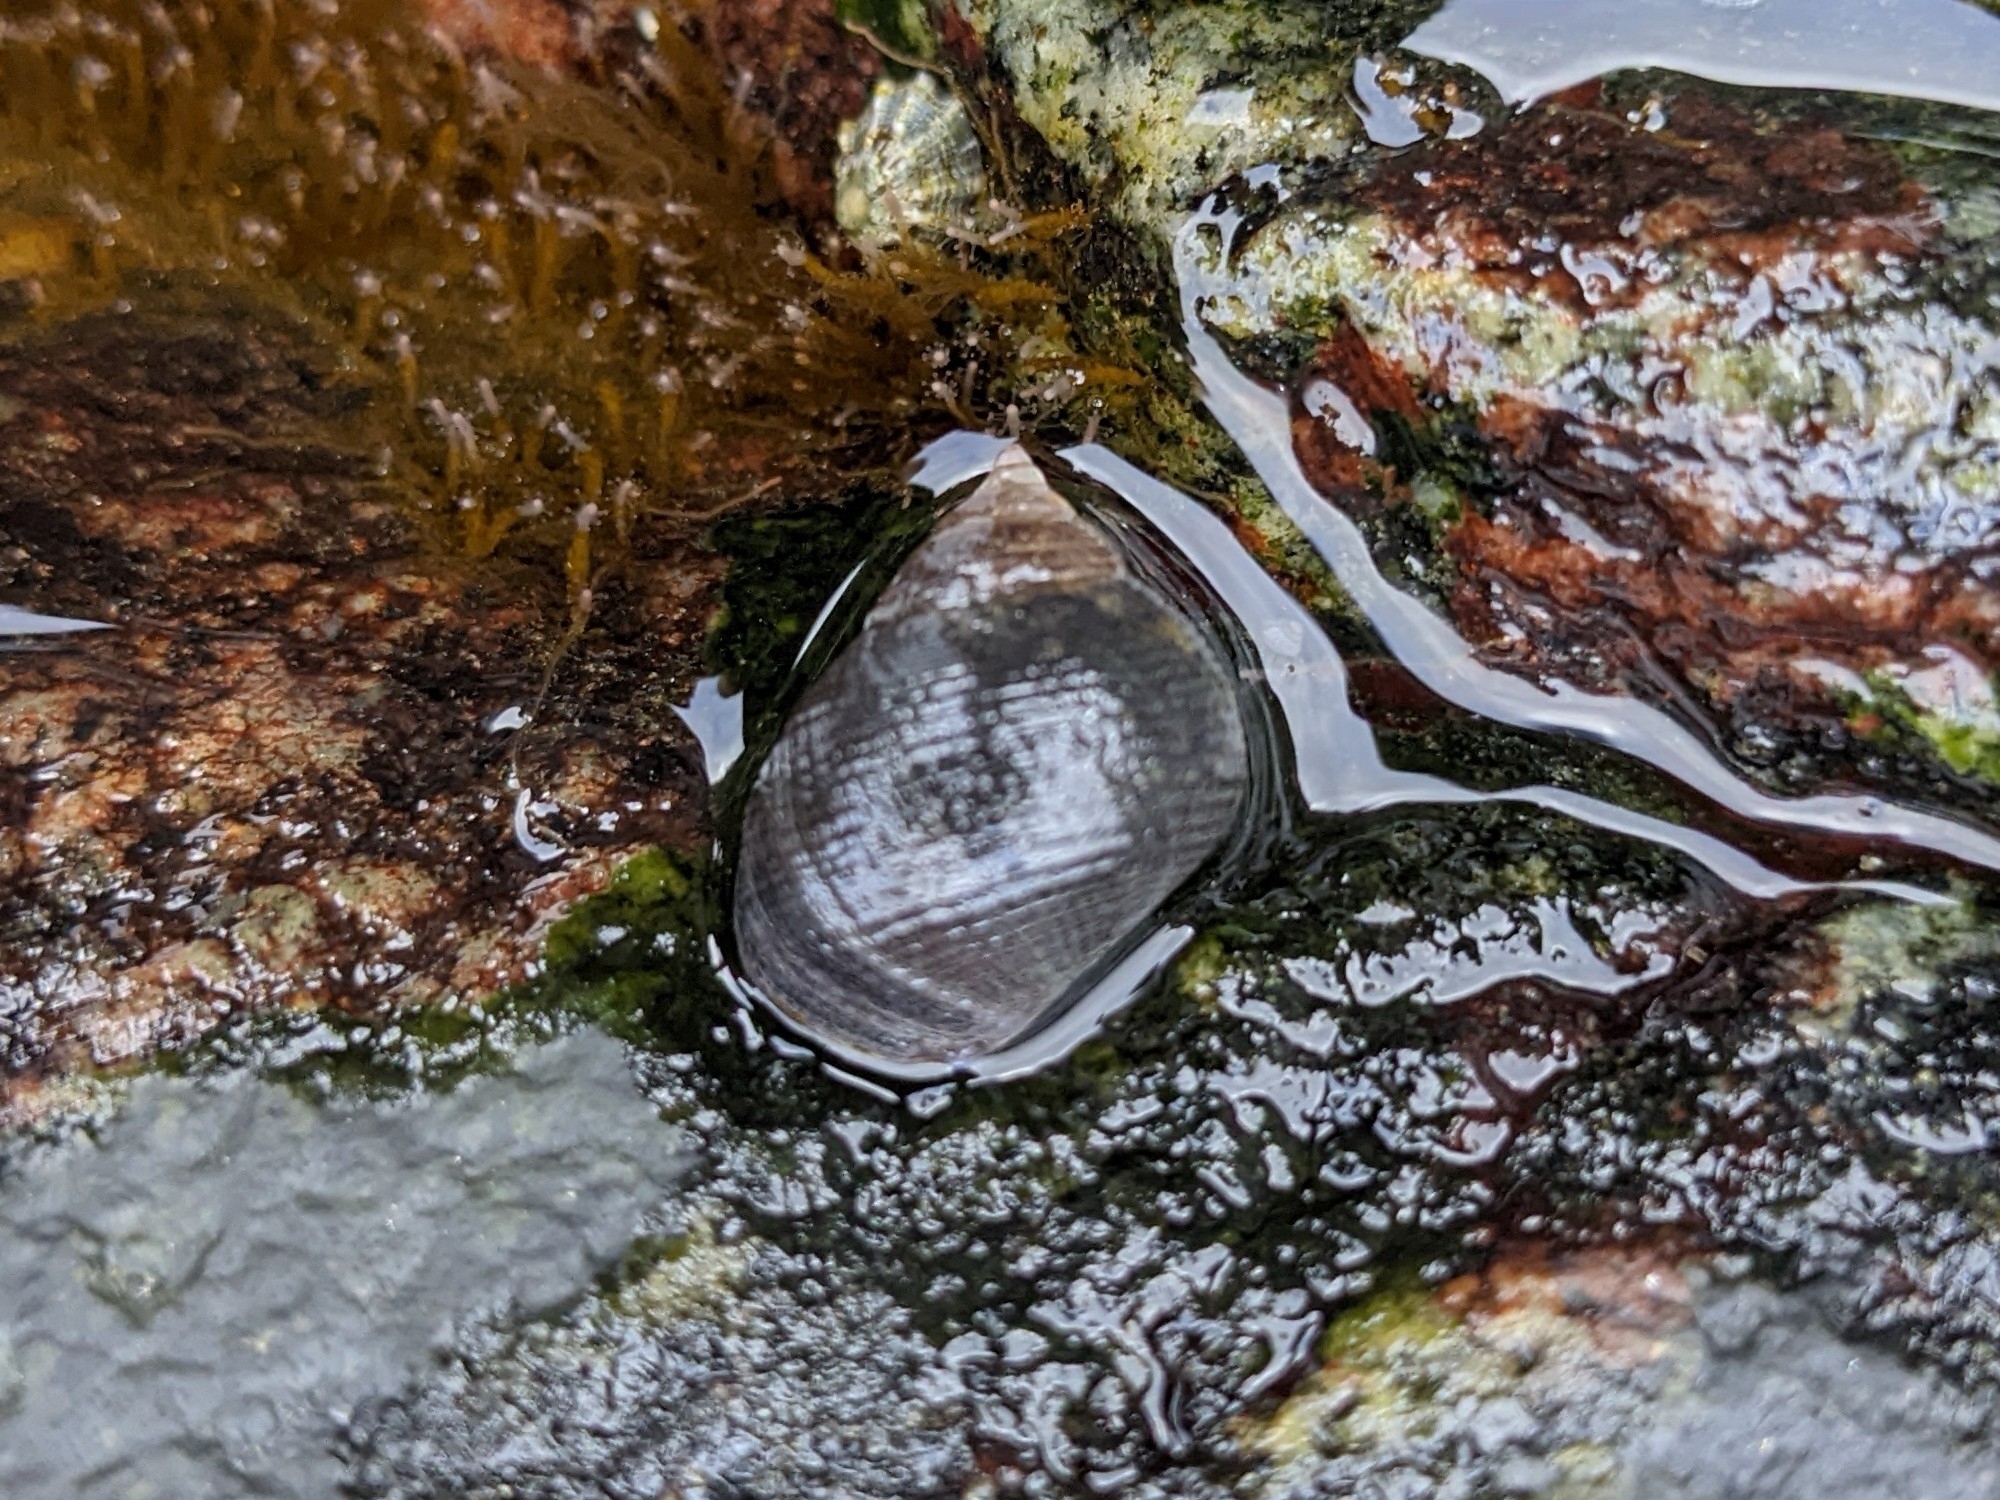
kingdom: Animalia
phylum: Mollusca
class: Gastropoda
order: Littorinimorpha
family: Littorinidae
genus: Littorina
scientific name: Littorina littorea
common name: Common periwinkle
